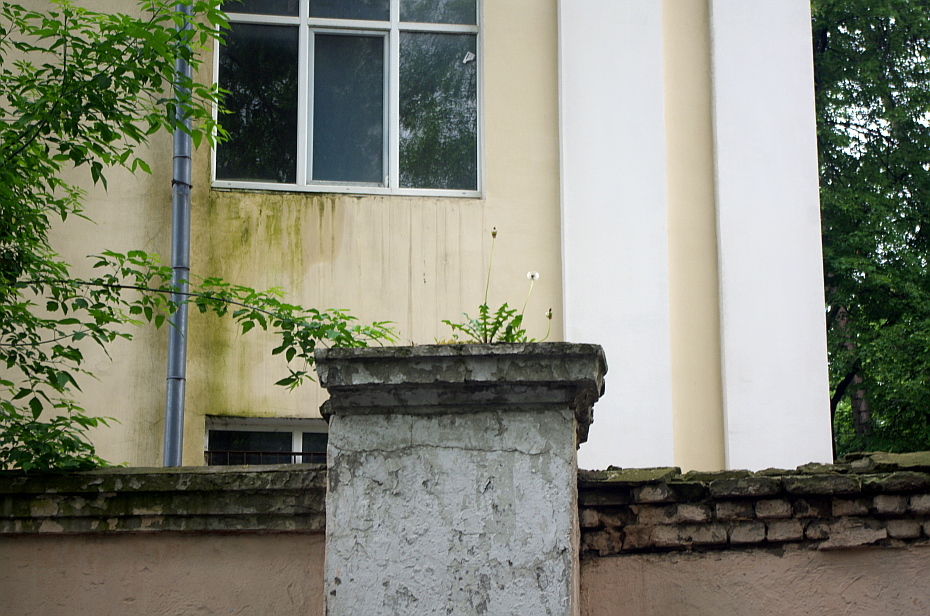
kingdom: Plantae
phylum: Tracheophyta
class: Magnoliopsida
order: Asterales
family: Asteraceae
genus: Taraxacum
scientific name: Taraxacum officinale
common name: Common dandelion
